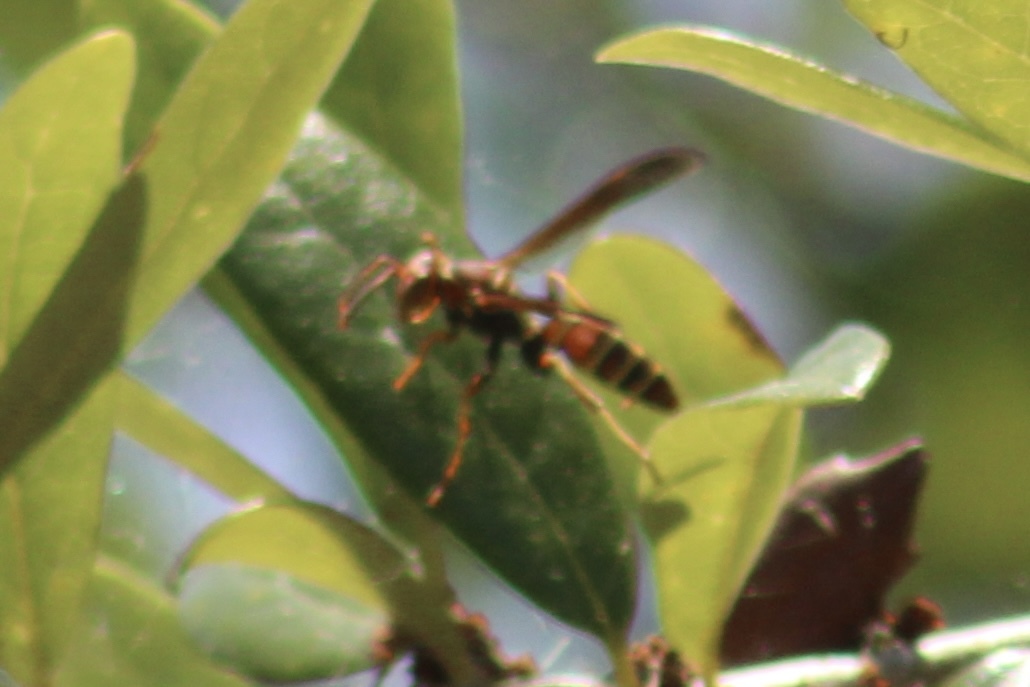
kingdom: Animalia
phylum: Arthropoda
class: Insecta
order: Hymenoptera
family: Eumenidae
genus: Polistes
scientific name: Polistes dorsalis
